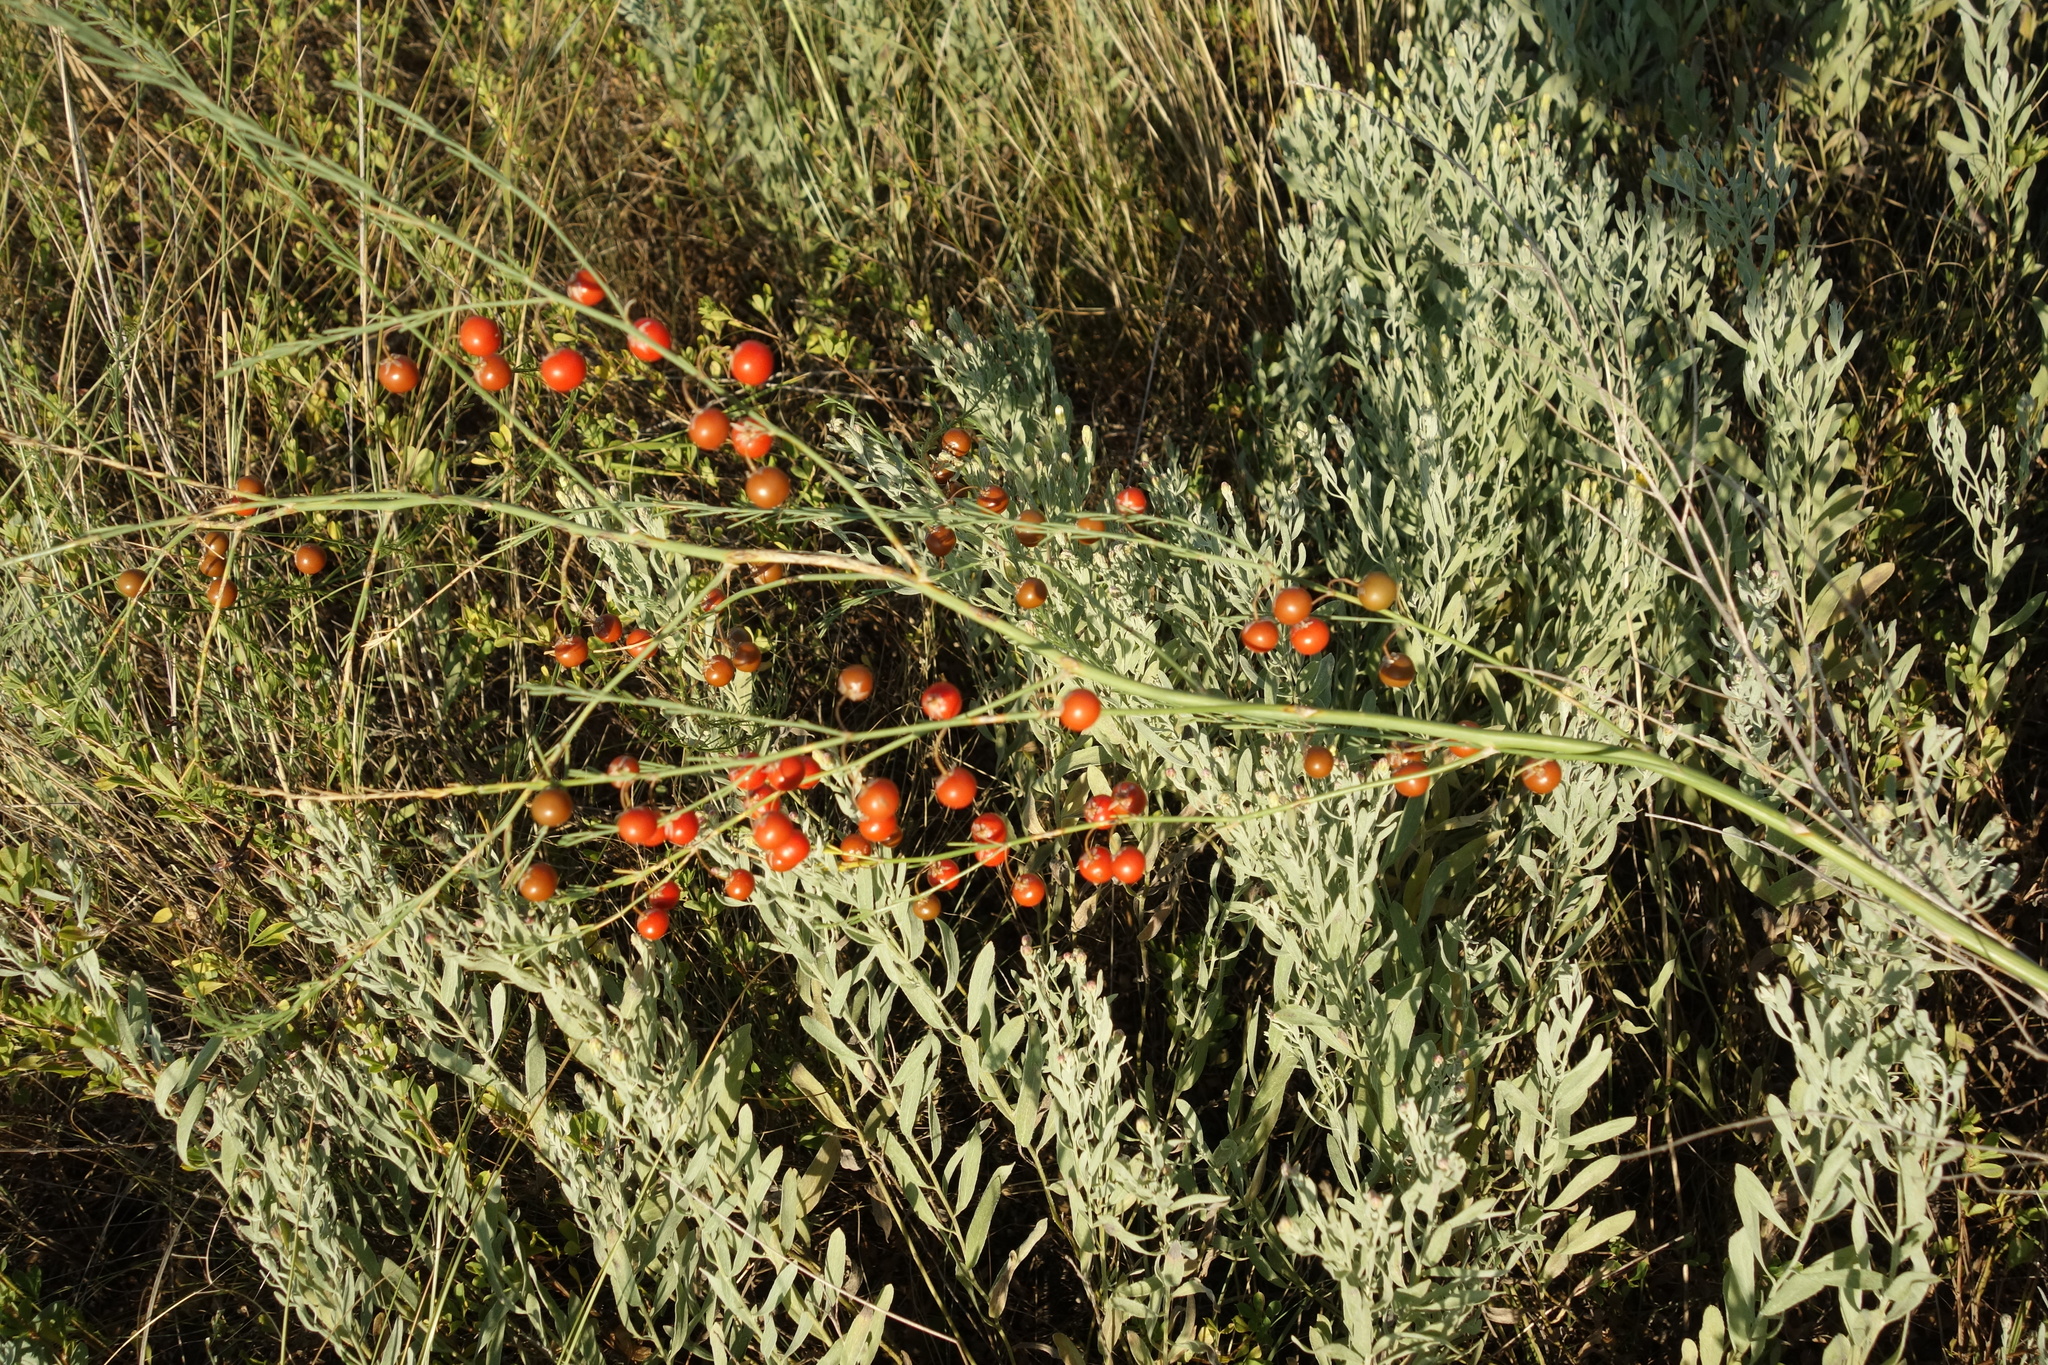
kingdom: Plantae
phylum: Tracheophyta
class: Liliopsida
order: Asparagales
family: Asparagaceae
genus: Asparagus
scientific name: Asparagus officinalis
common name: Garden asparagus
